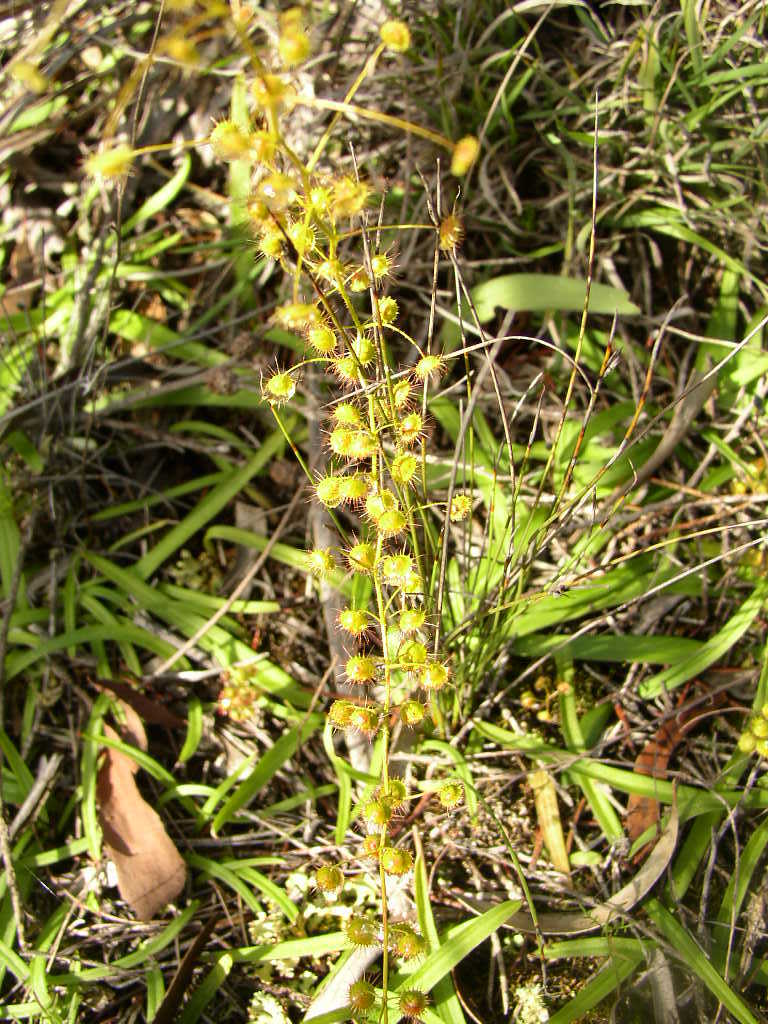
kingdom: Plantae
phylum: Tracheophyta
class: Magnoliopsida
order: Caryophyllales
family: Droseraceae
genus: Drosera
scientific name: Drosera macrantha
